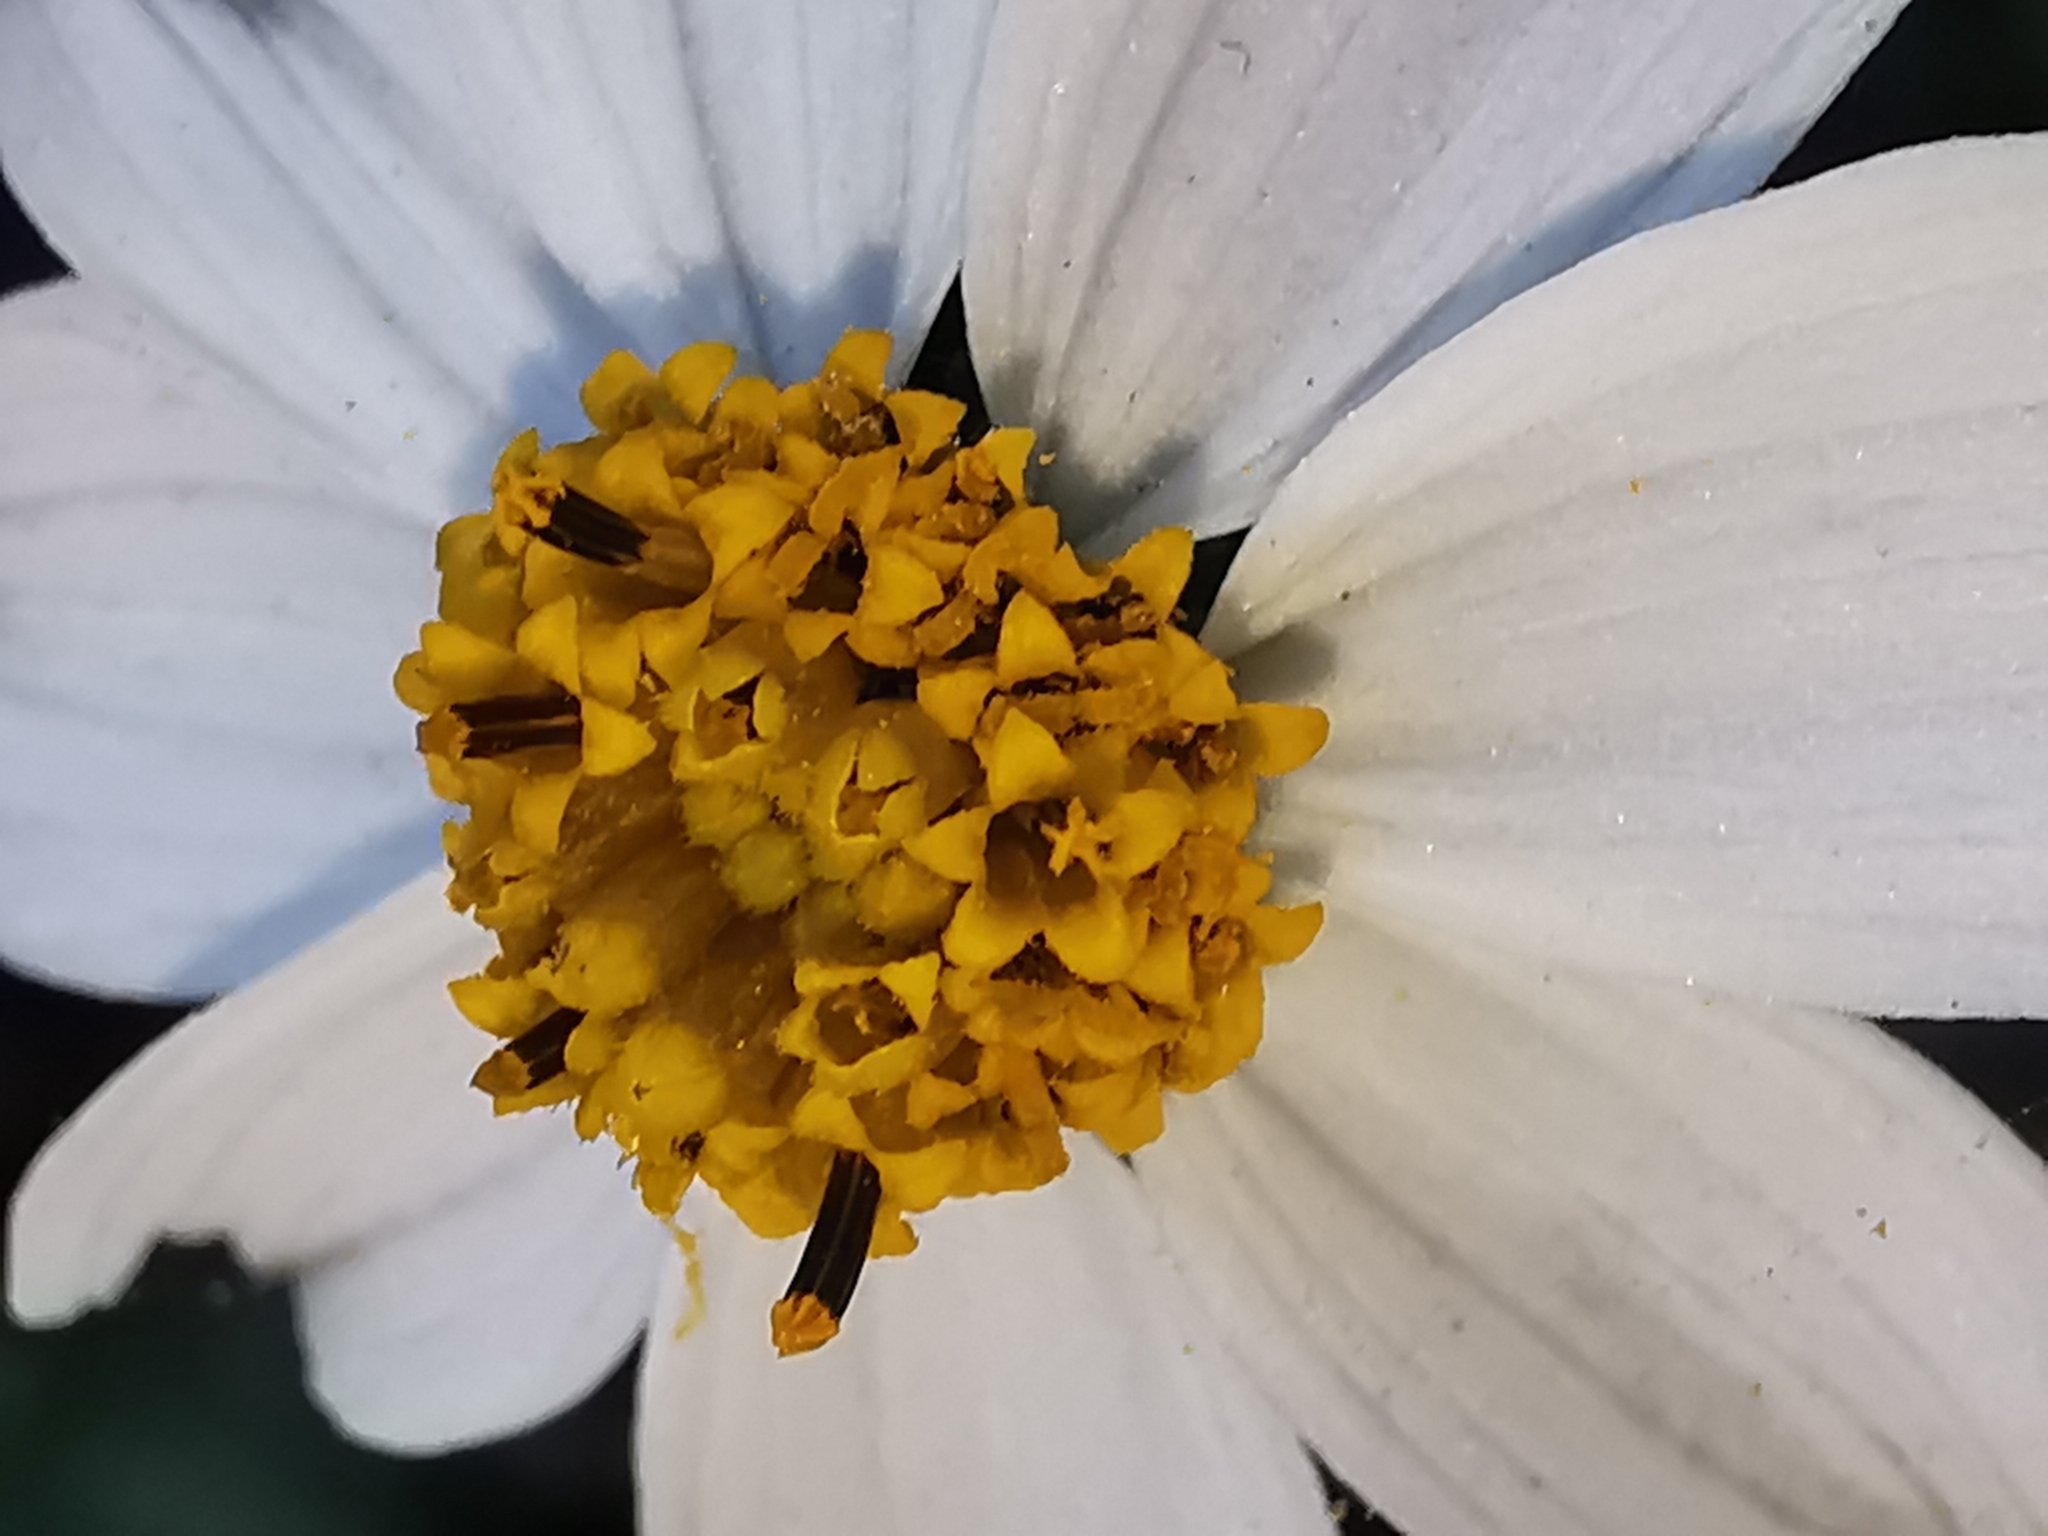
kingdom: Plantae
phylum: Tracheophyta
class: Magnoliopsida
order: Asterales
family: Asteraceae
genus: Bidens
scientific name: Bidens alba
